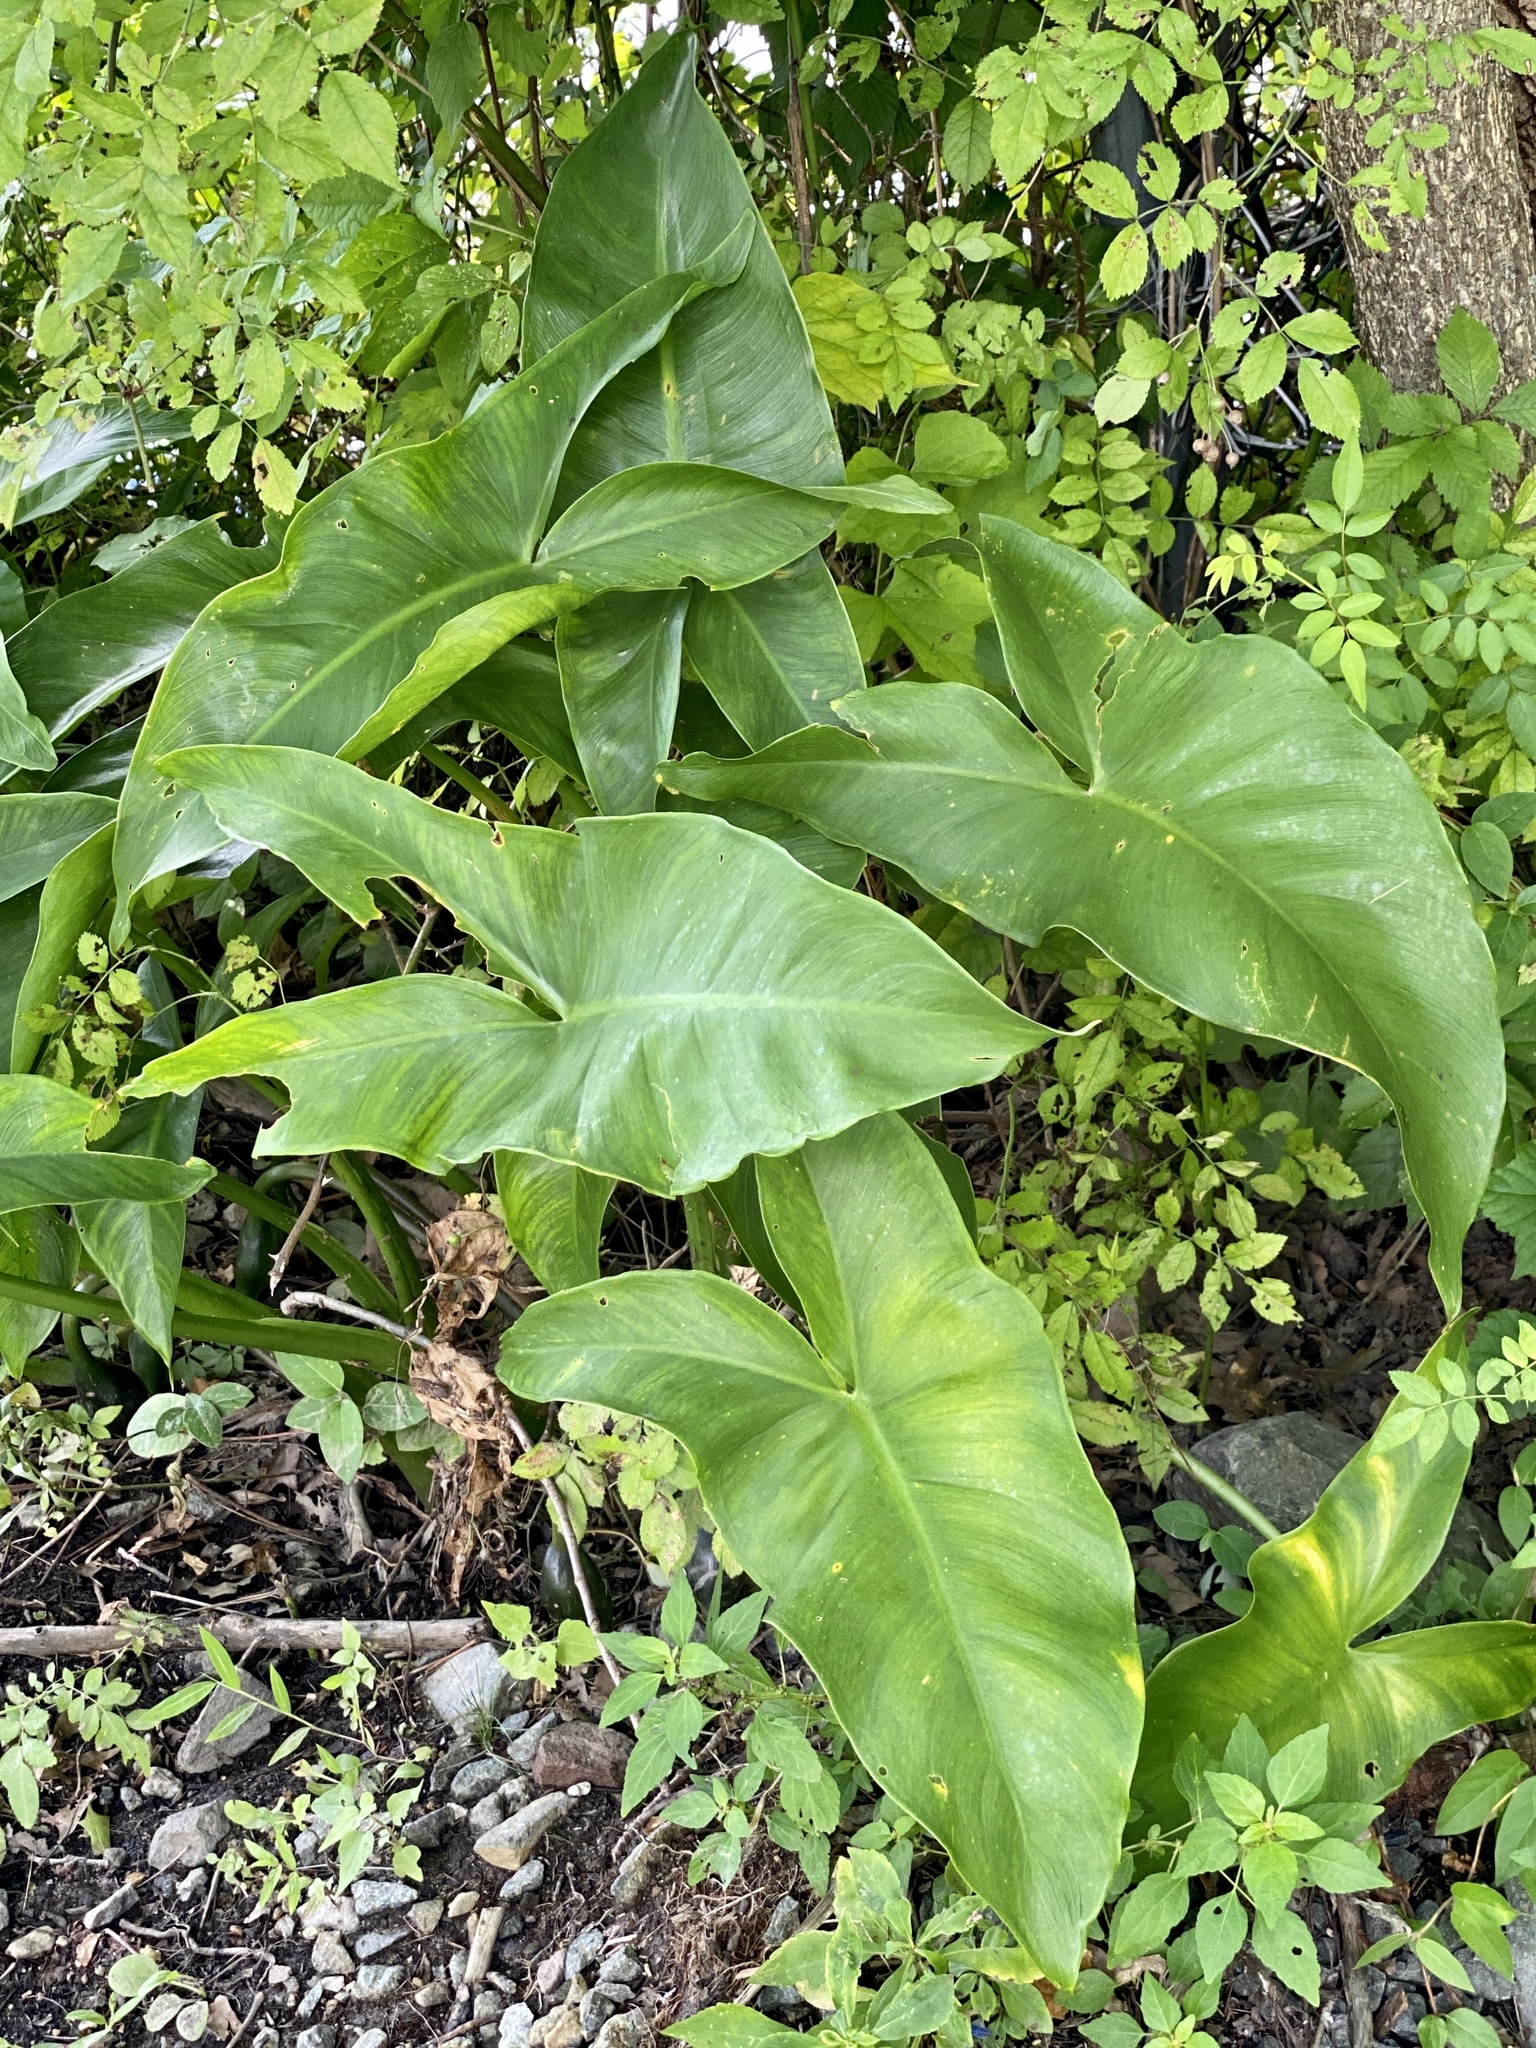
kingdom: Plantae
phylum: Tracheophyta
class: Liliopsida
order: Alismatales
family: Araceae
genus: Peltandra
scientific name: Peltandra virginica
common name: Arrow arum
